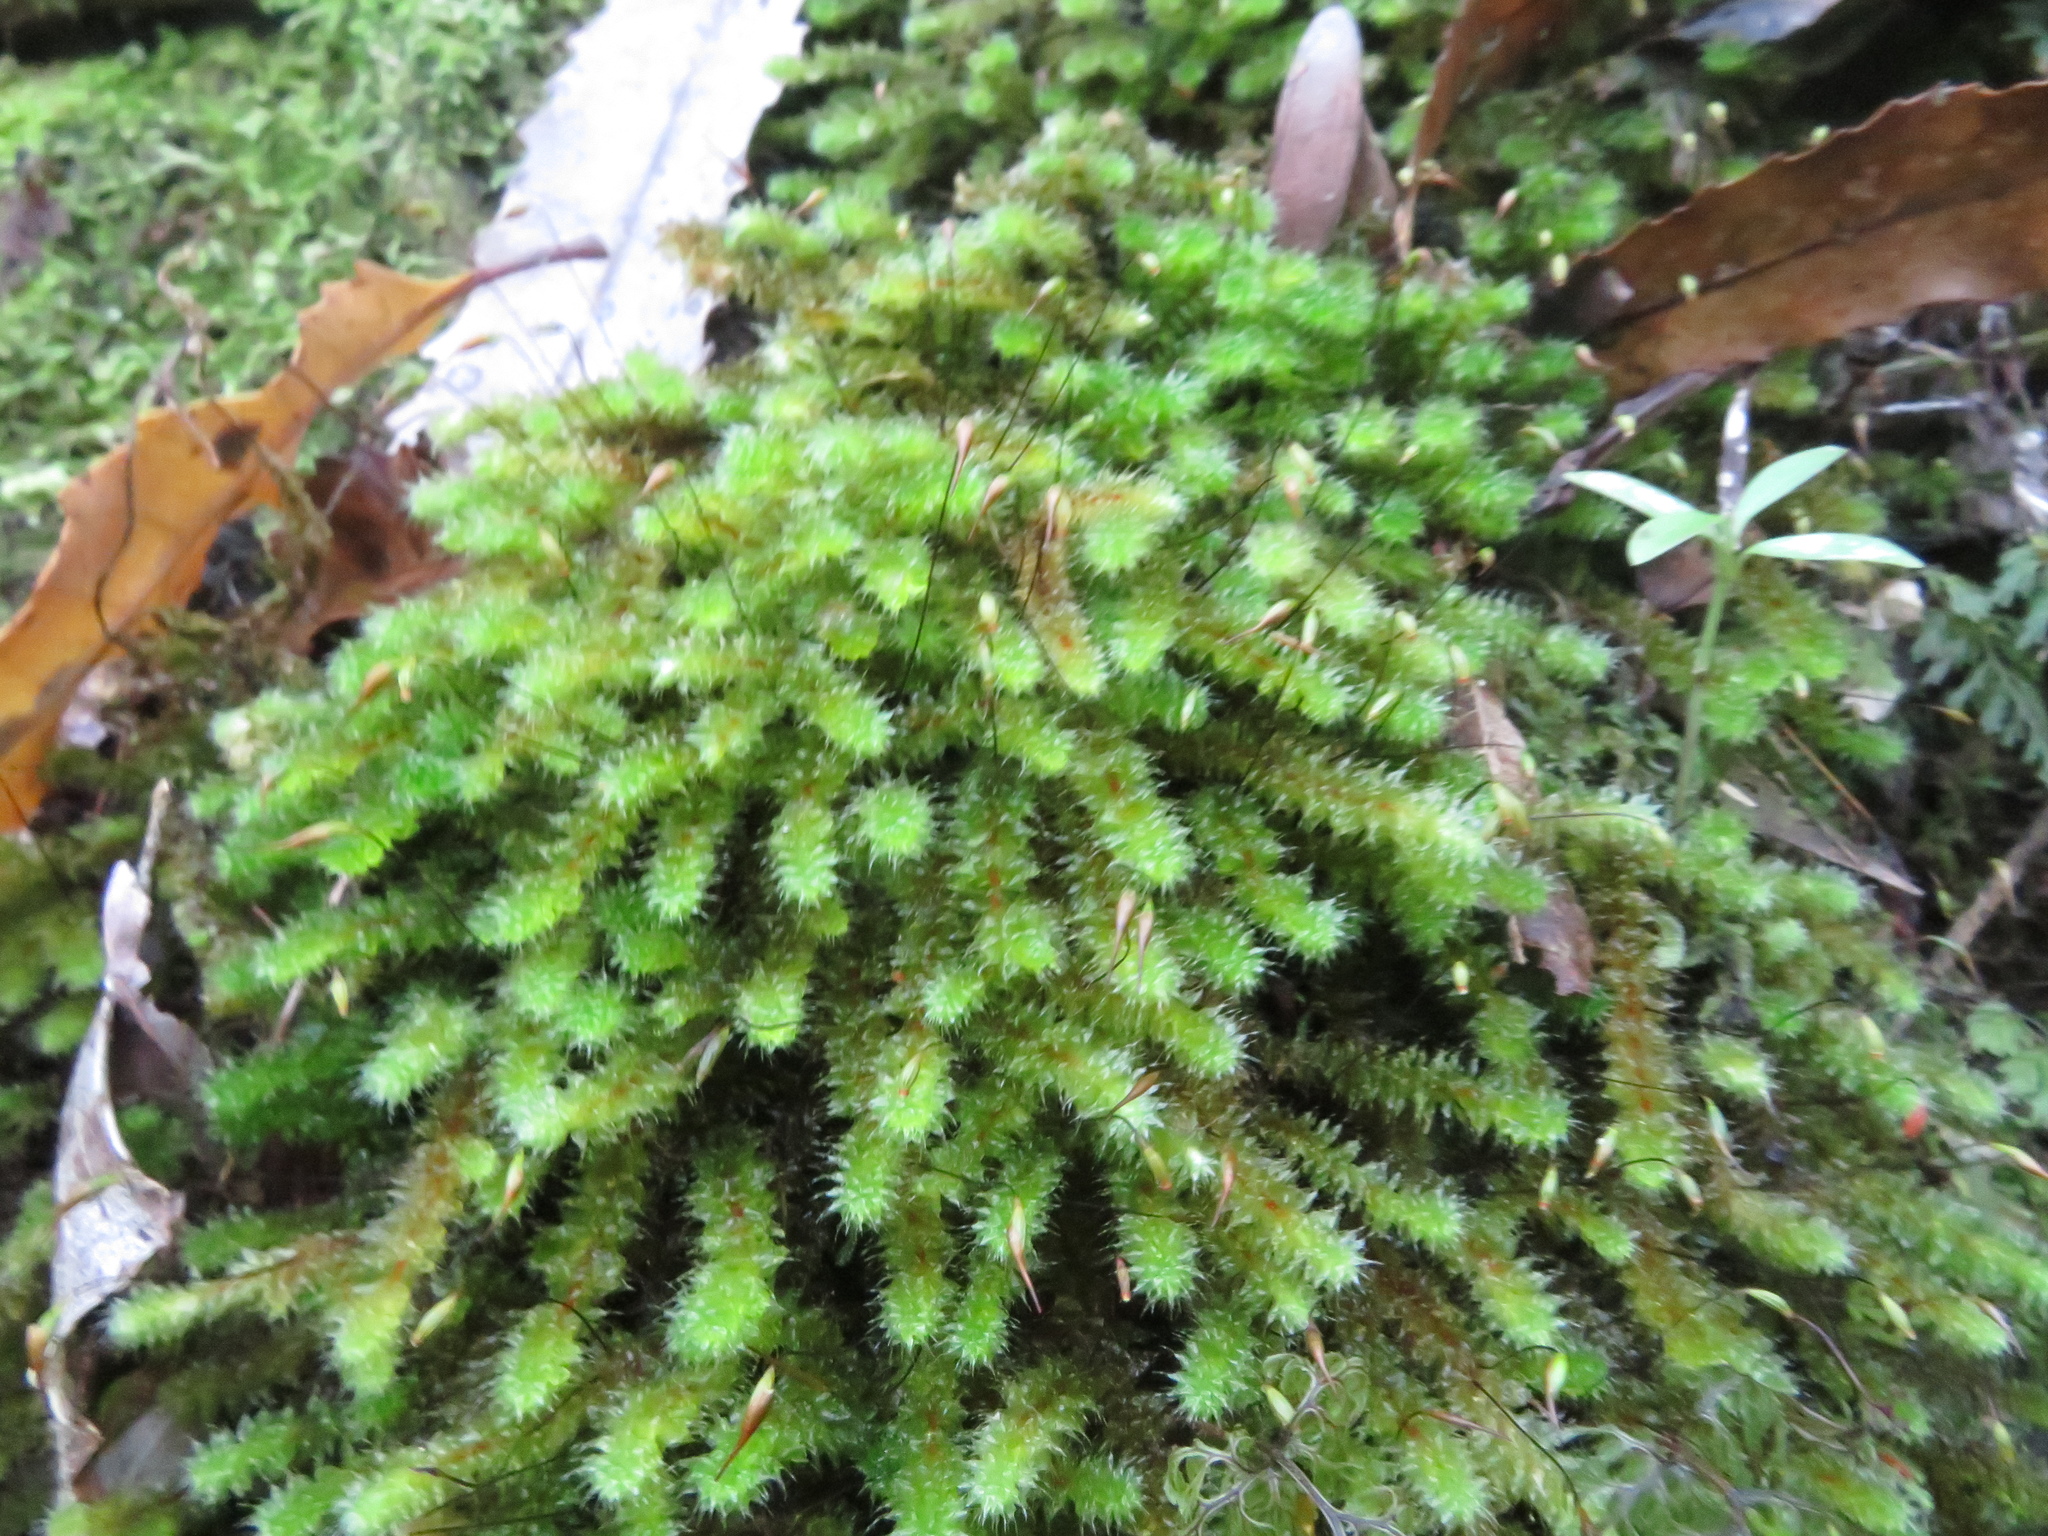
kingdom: Plantae
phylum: Bryophyta
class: Bryopsida
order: Ptychomniales
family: Ptychomniaceae
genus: Ptychomnion
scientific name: Ptychomnion aciculare
